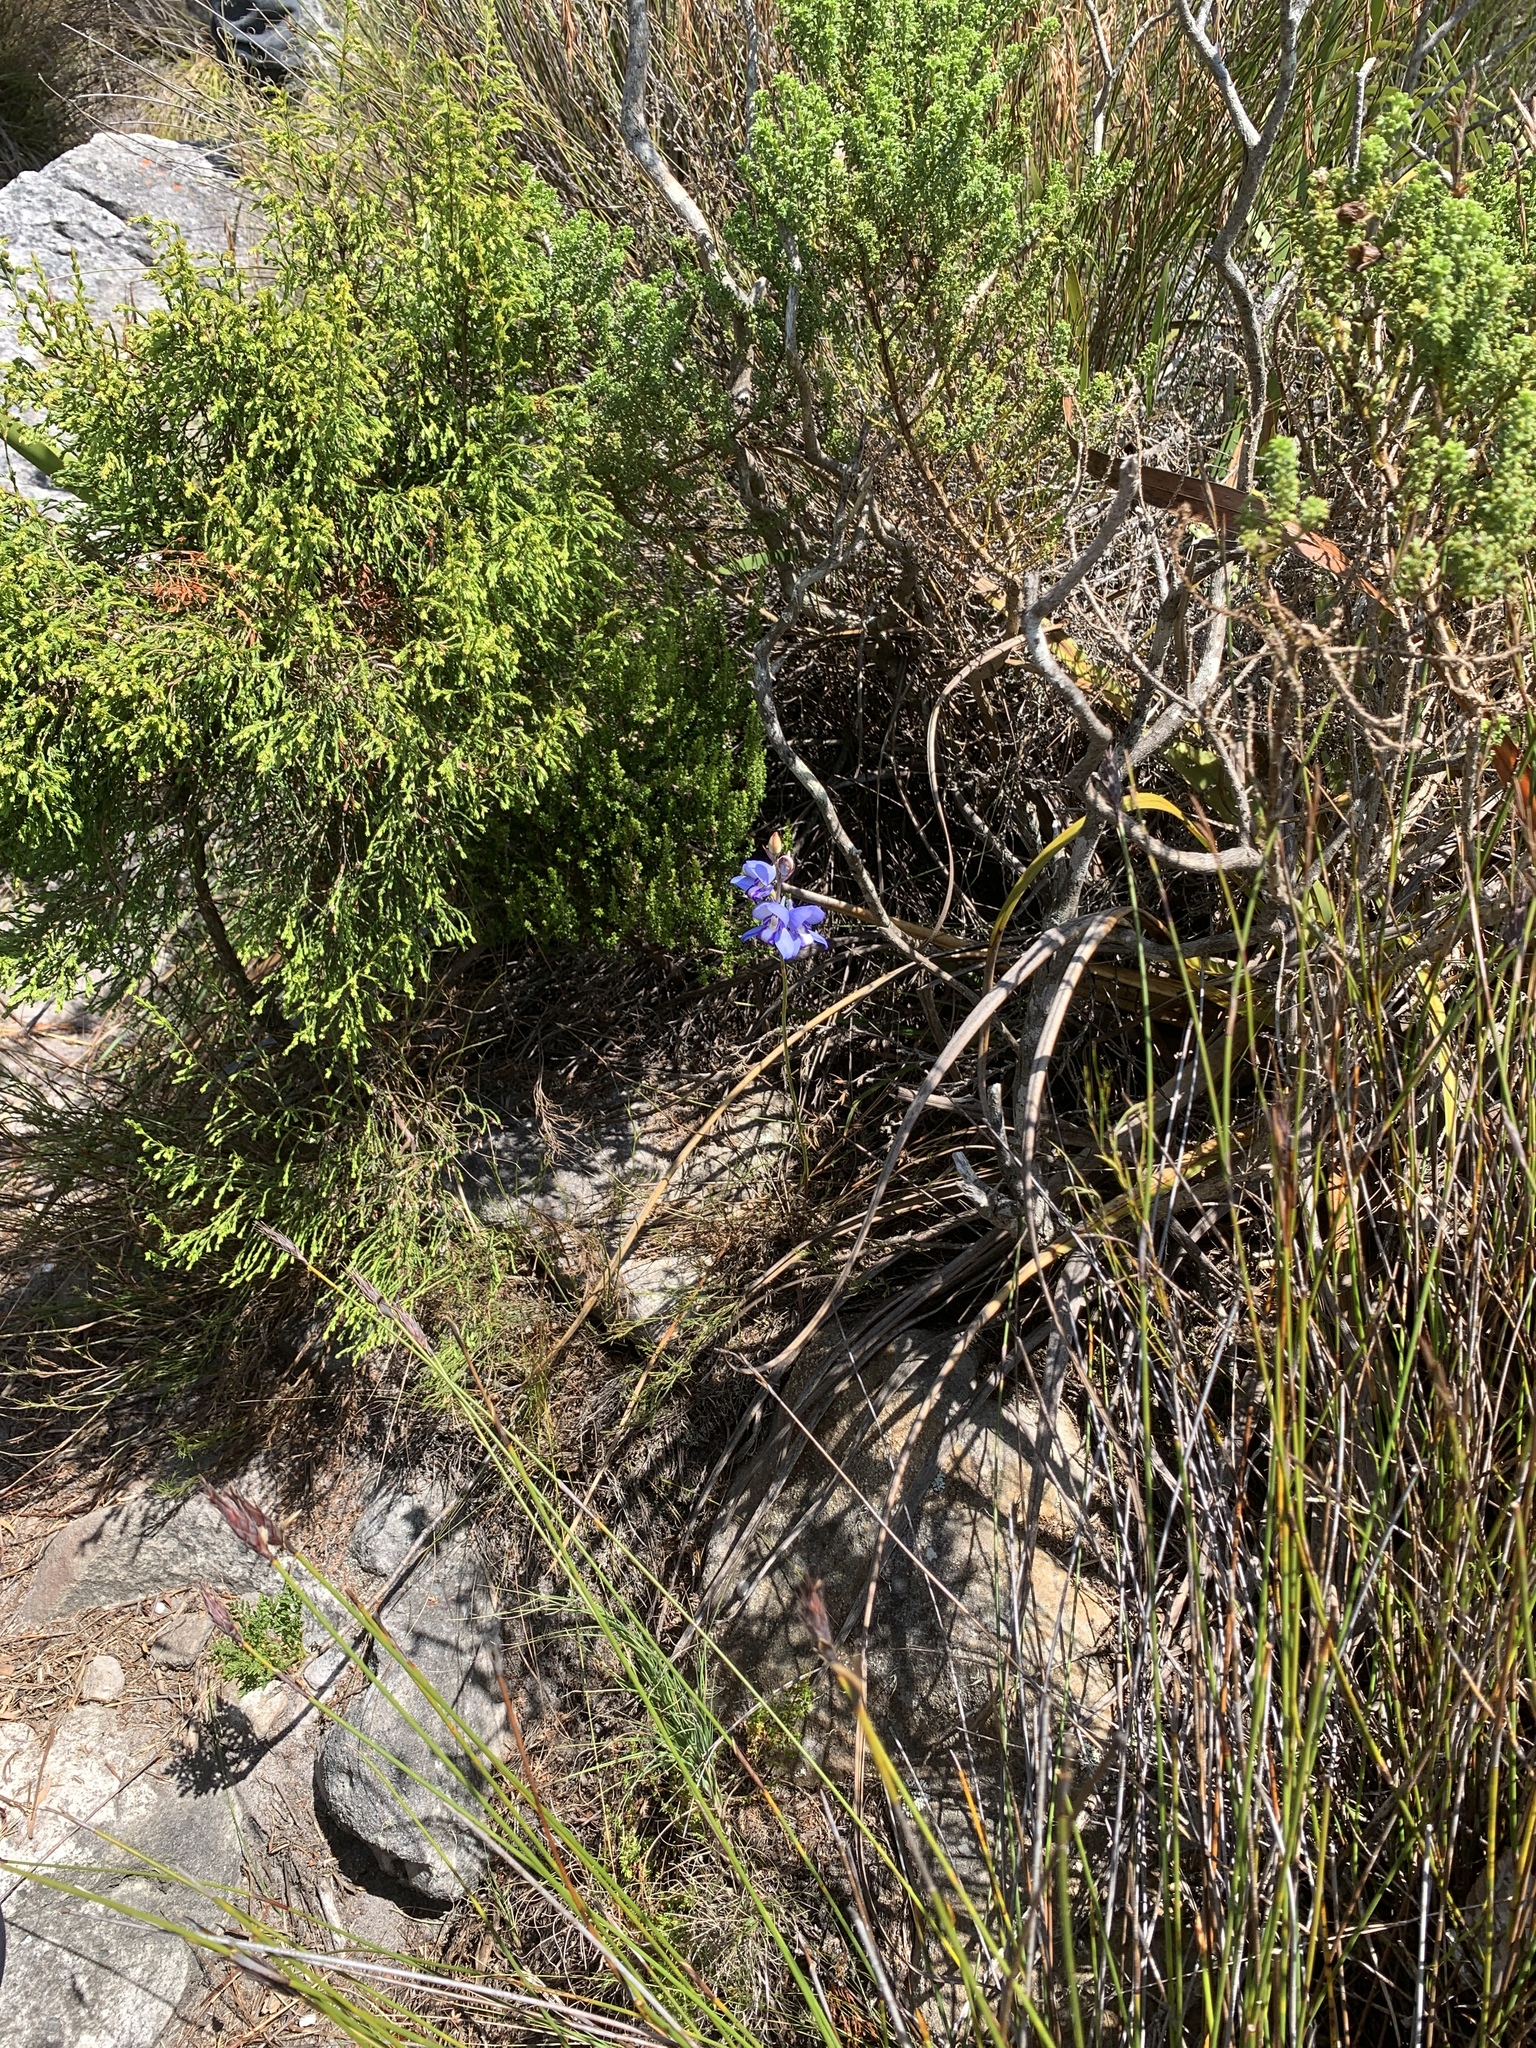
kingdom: Plantae
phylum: Tracheophyta
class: Liliopsida
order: Asparagales
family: Orchidaceae
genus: Disa
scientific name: Disa graminifolia
